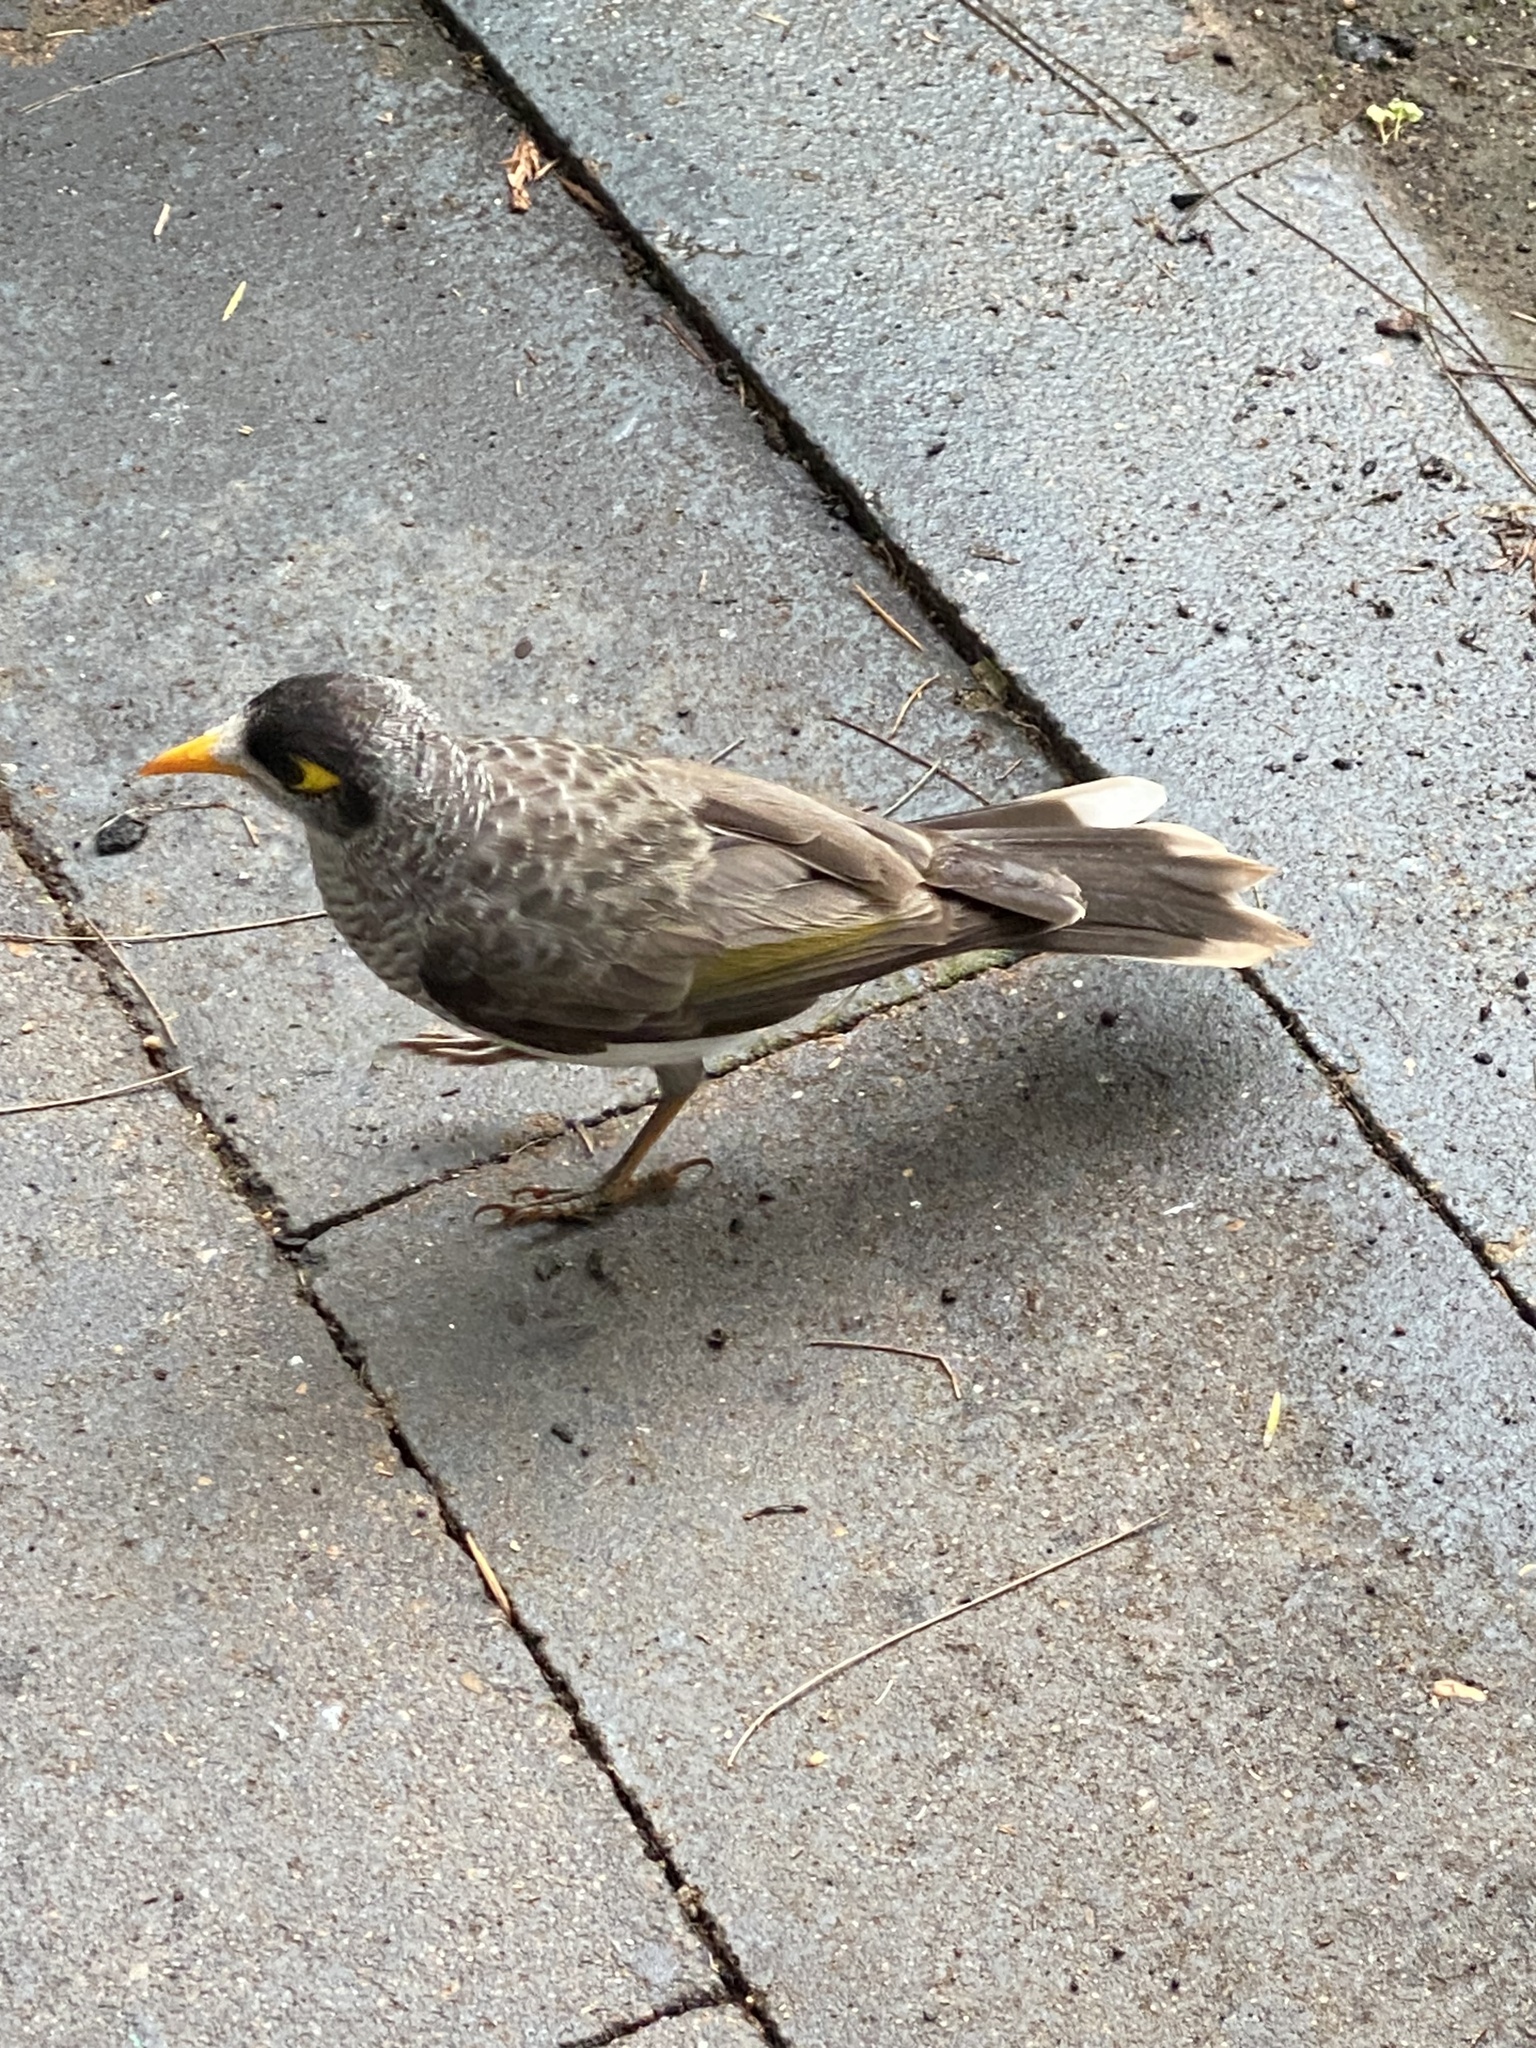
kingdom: Animalia
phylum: Chordata
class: Aves
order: Passeriformes
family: Meliphagidae
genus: Manorina
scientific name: Manorina melanocephala
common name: Noisy miner
